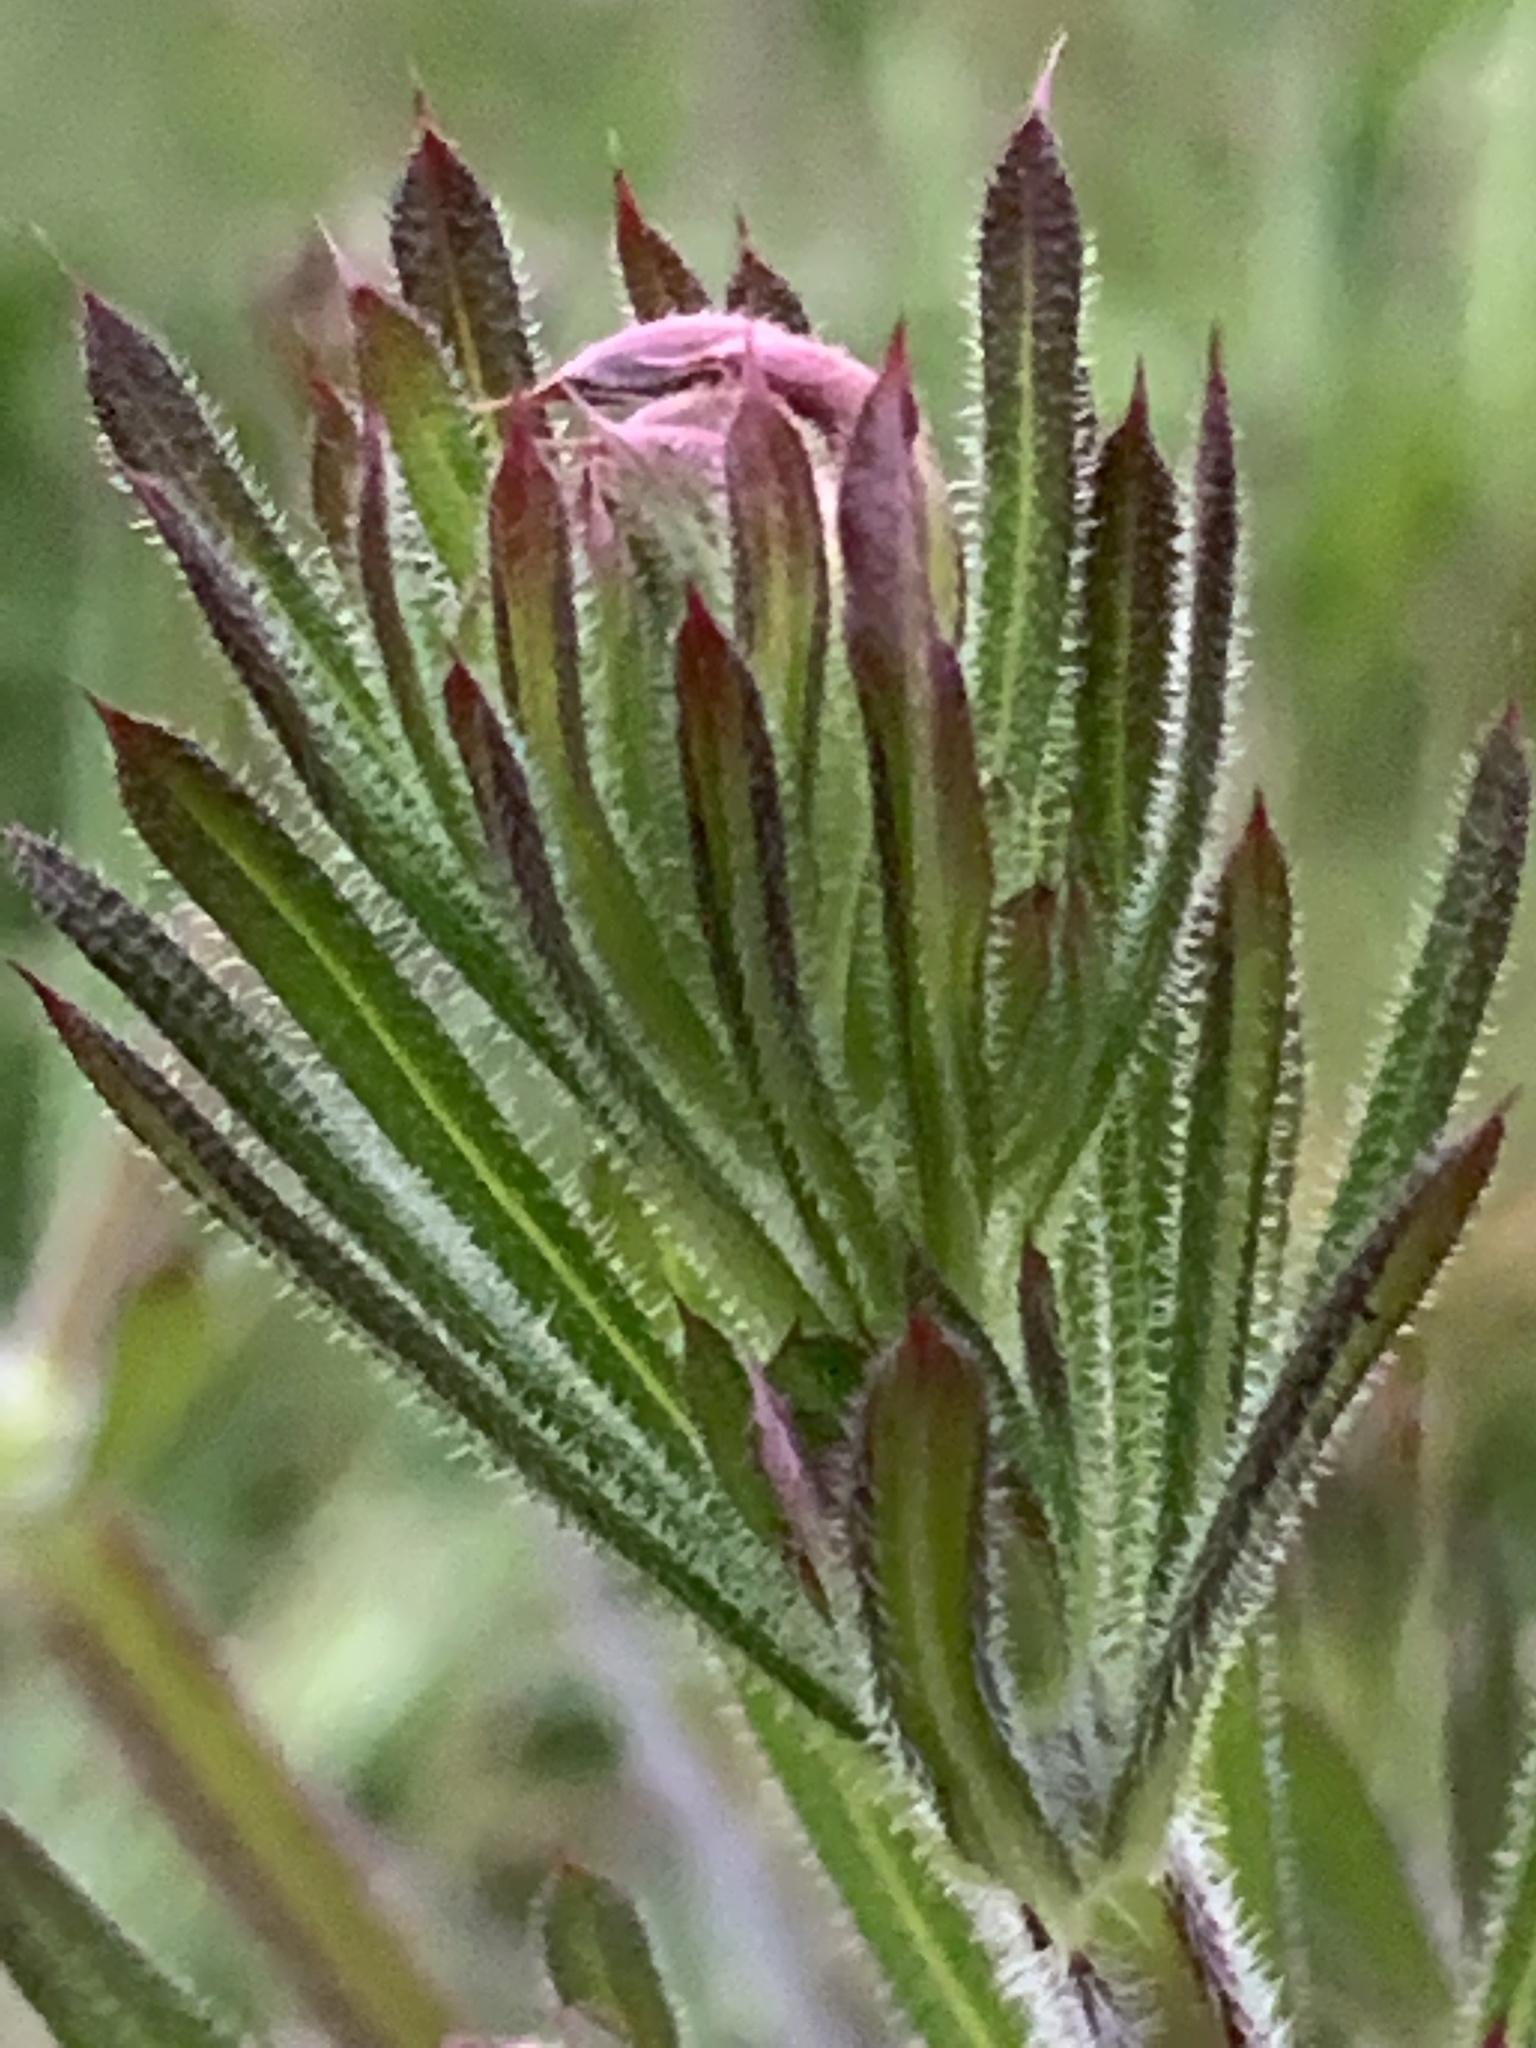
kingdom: Plantae
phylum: Tracheophyta
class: Magnoliopsida
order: Gentianales
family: Rubiaceae
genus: Galium
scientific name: Galium aparine
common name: Cleavers
